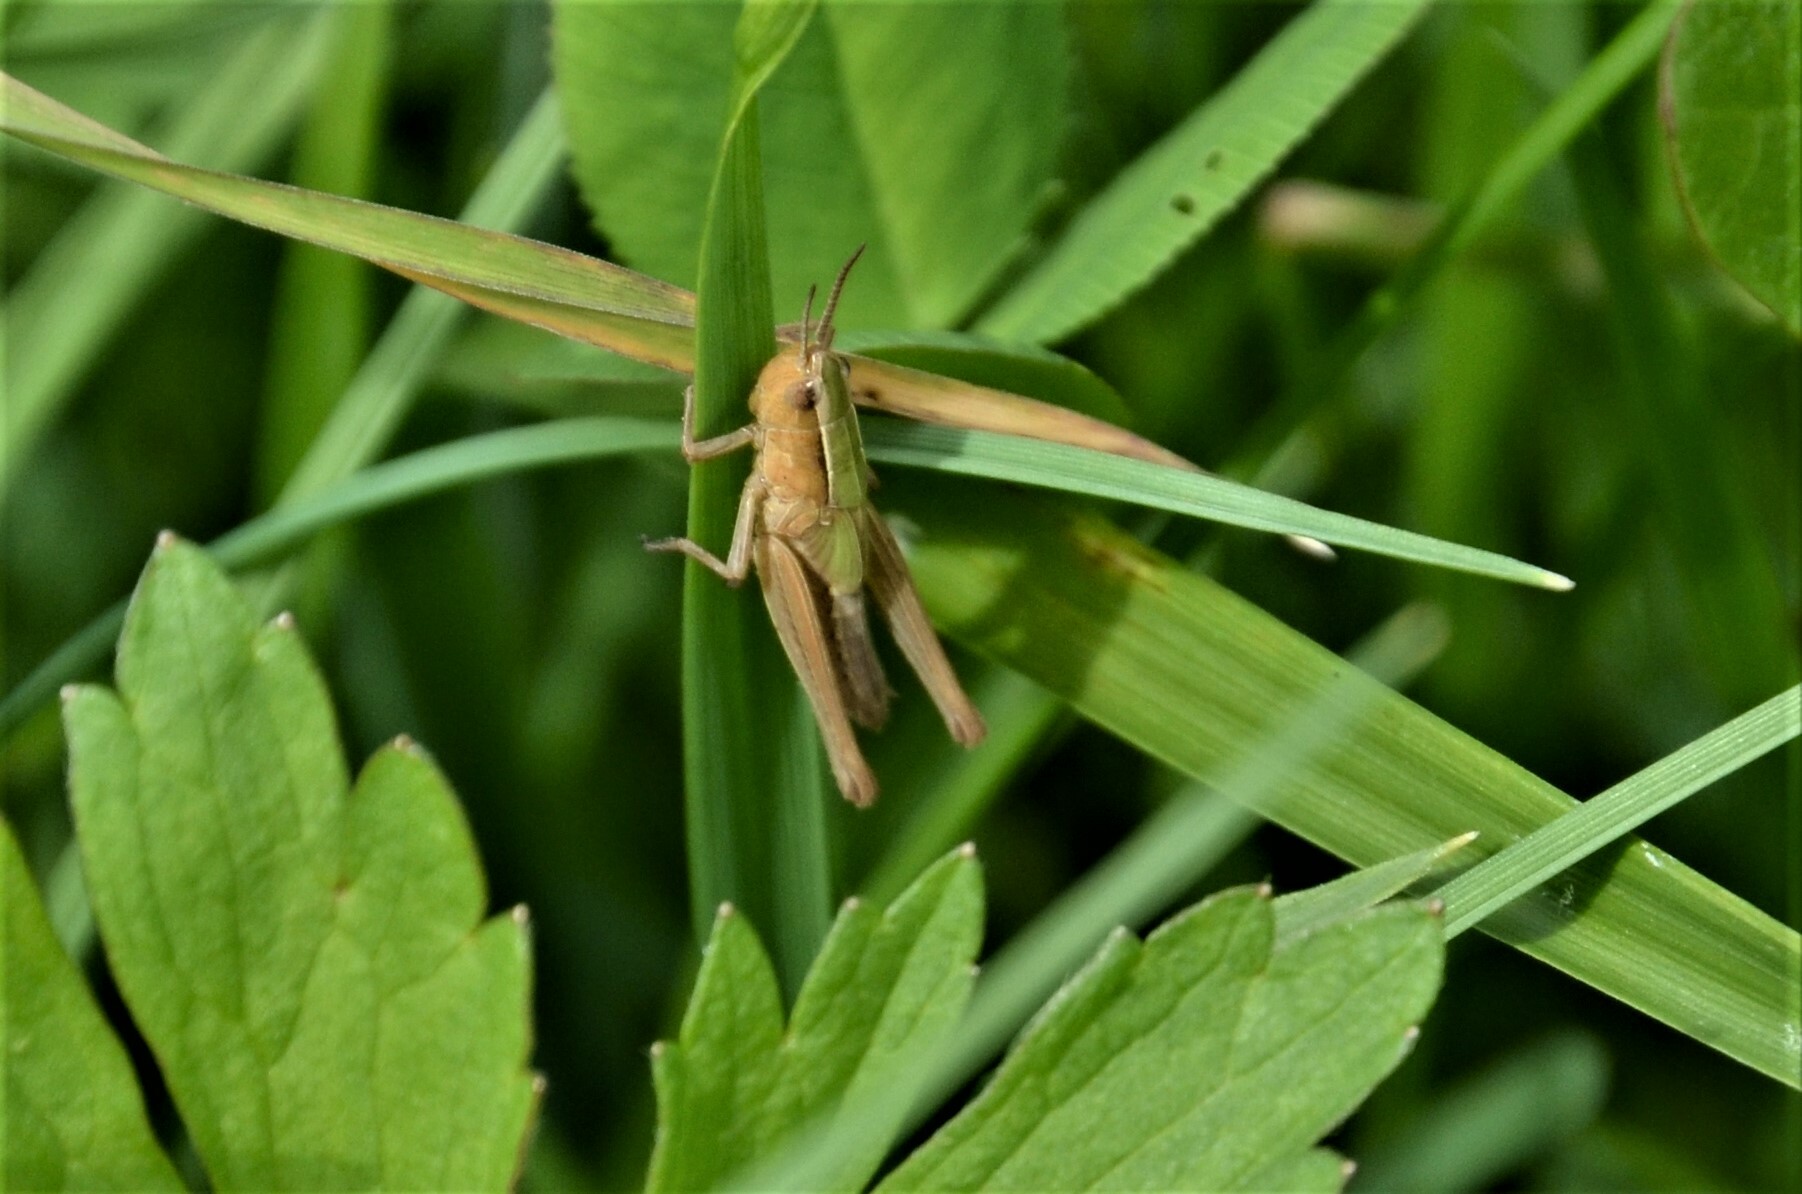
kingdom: Animalia
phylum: Arthropoda
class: Insecta
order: Orthoptera
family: Acrididae
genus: Chorthippus
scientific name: Chorthippus albomarginatus
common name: Lesser marsh grasshopper
